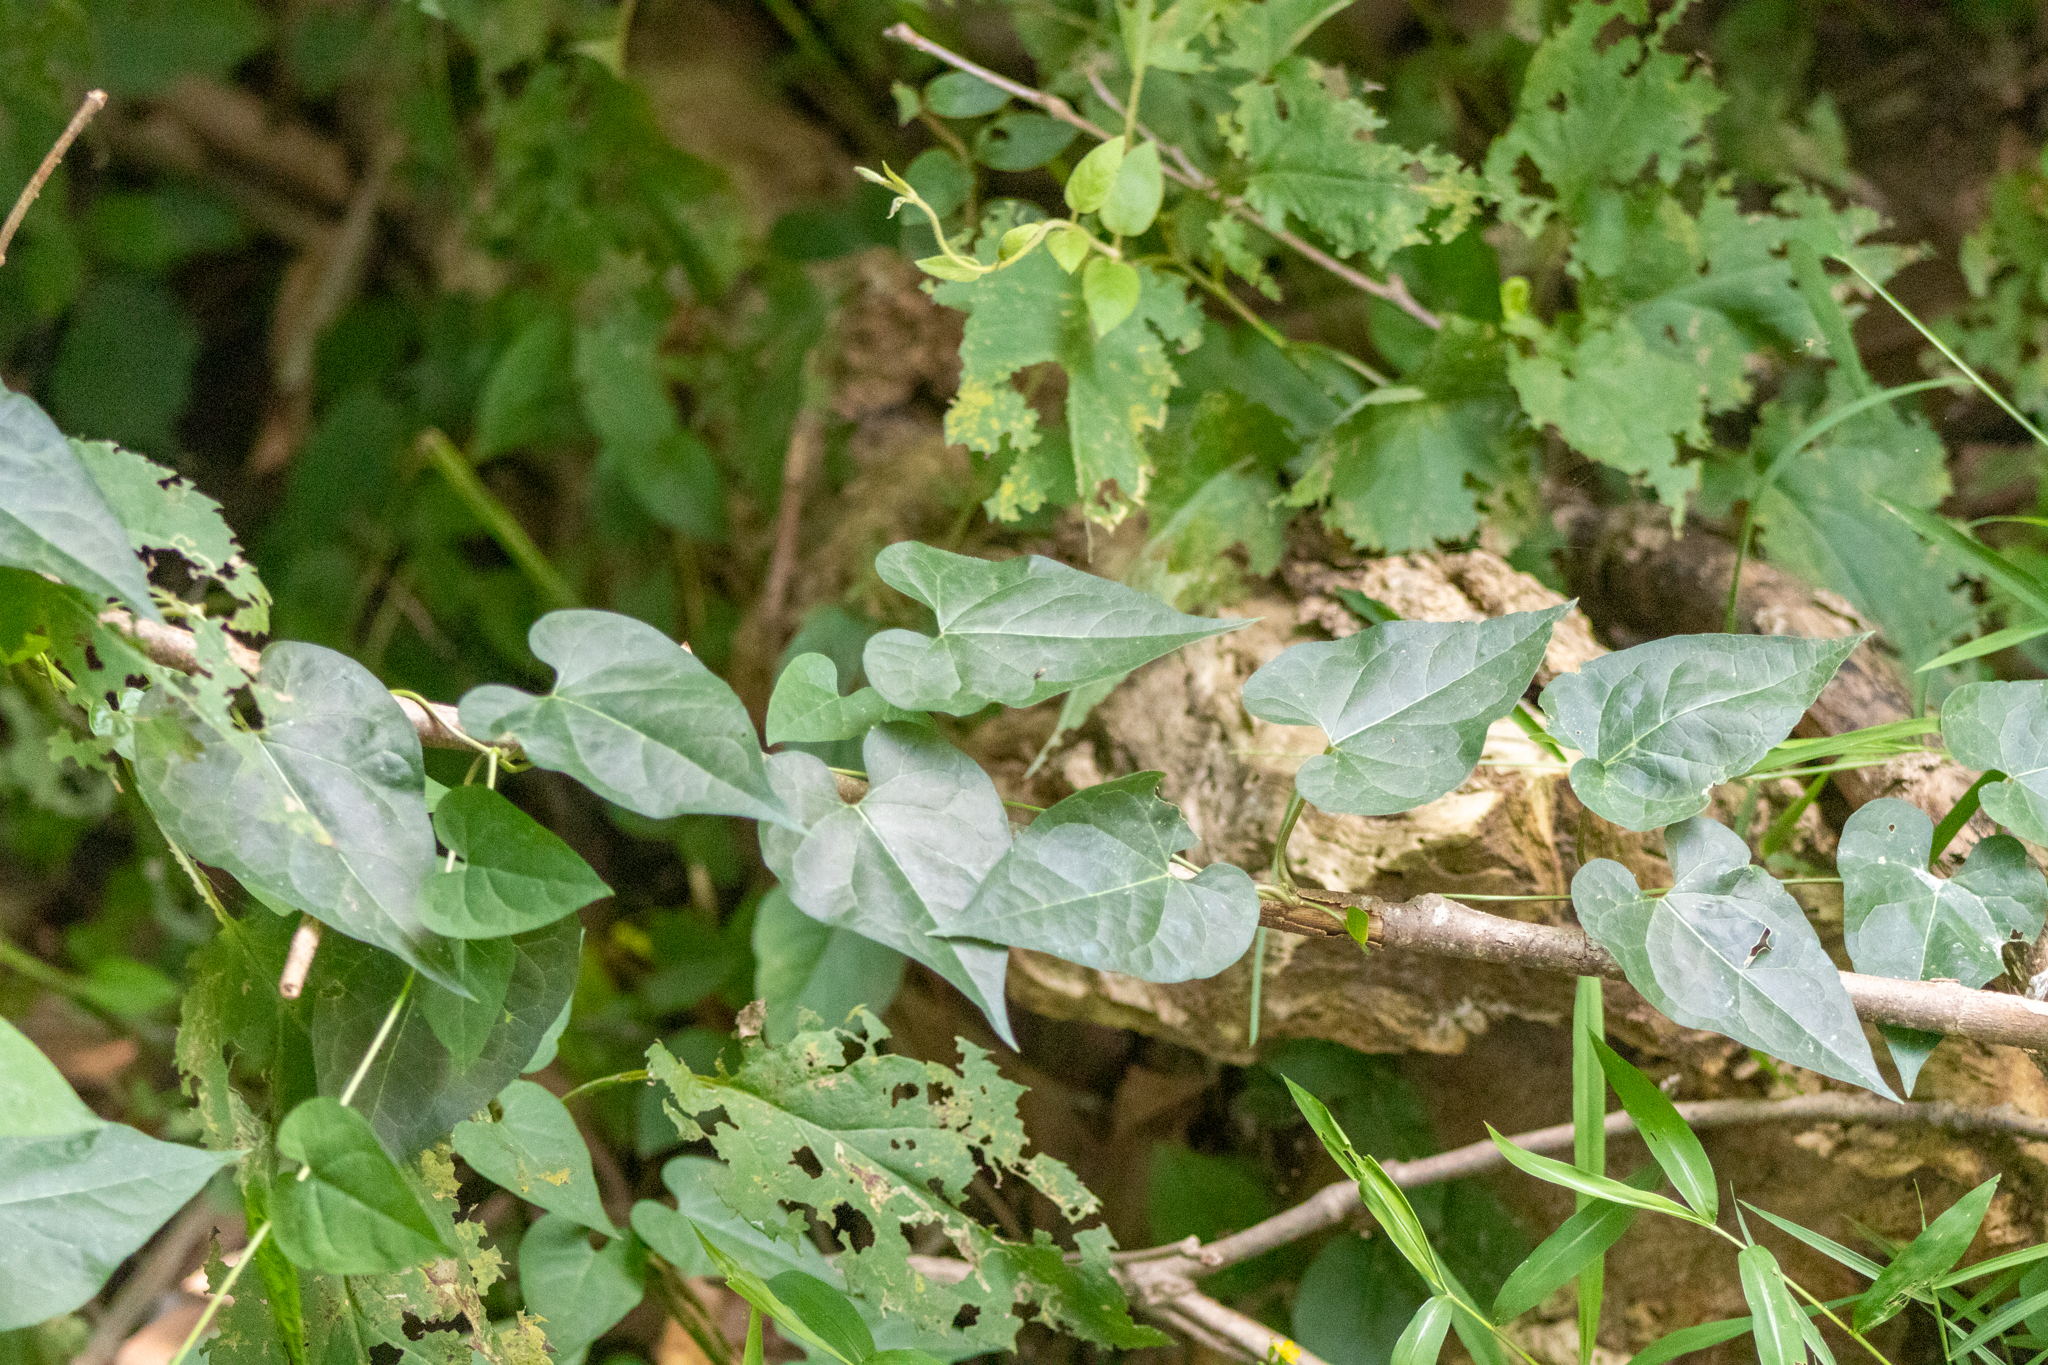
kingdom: Plantae
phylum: Tracheophyta
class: Magnoliopsida
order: Gentianales
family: Apocynaceae
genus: Cynanchum
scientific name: Cynanchum laeve
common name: Sandvine
